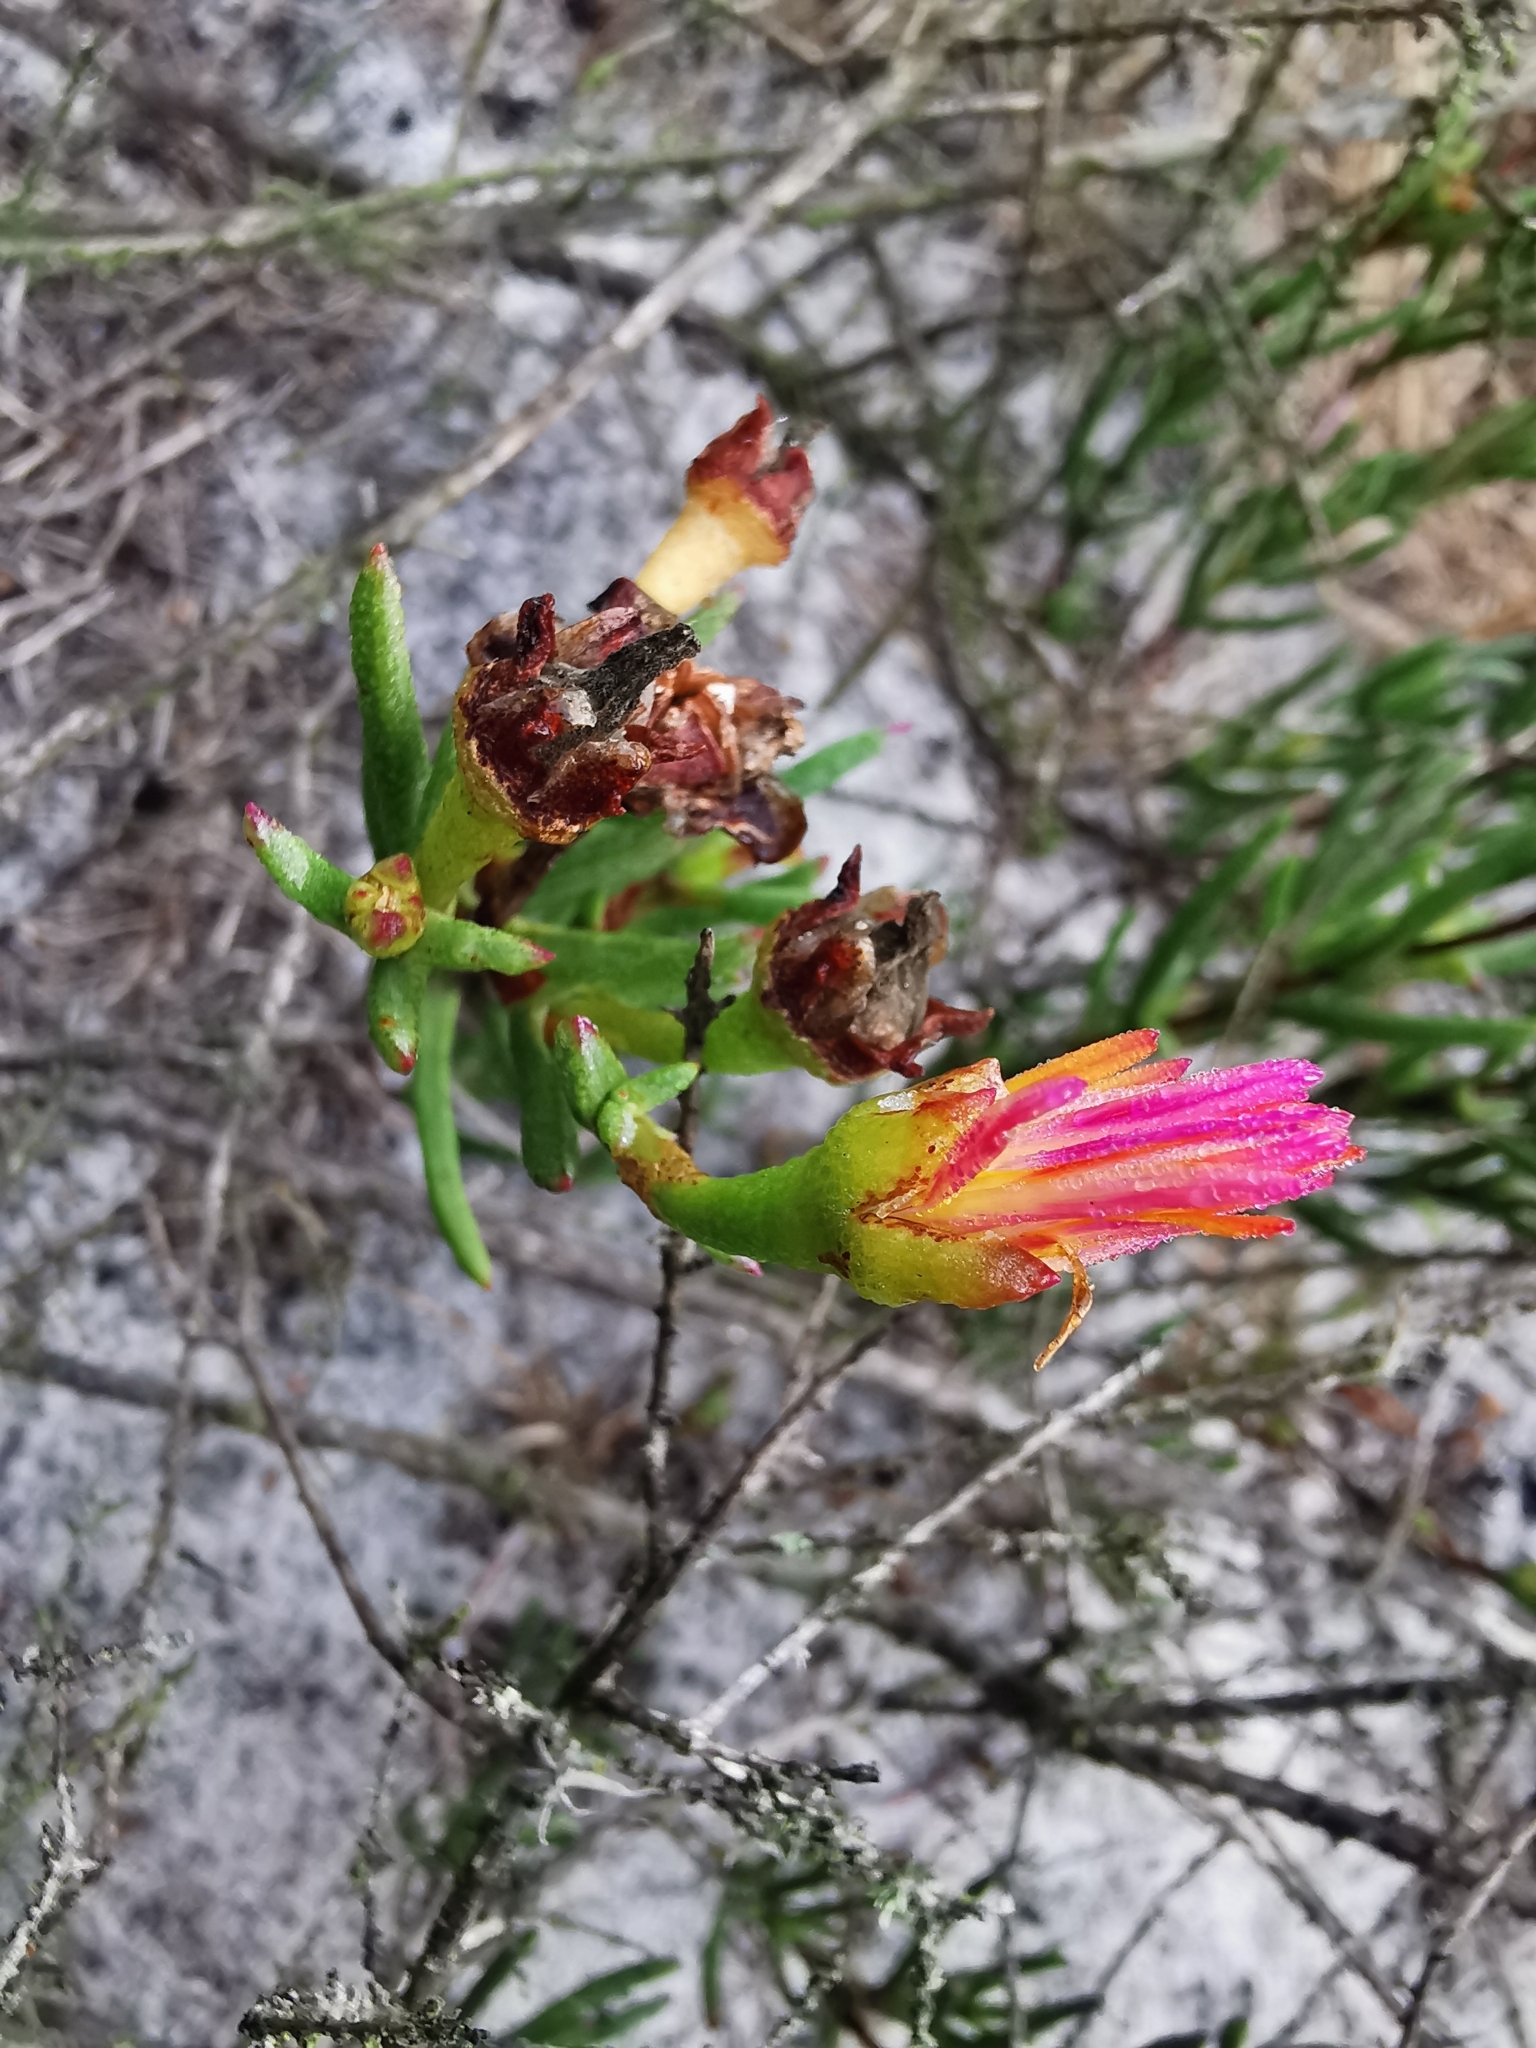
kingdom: Plantae
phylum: Tracheophyta
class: Magnoliopsida
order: Caryophyllales
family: Aizoaceae
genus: Lampranthus
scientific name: Lampranthus bicolor
